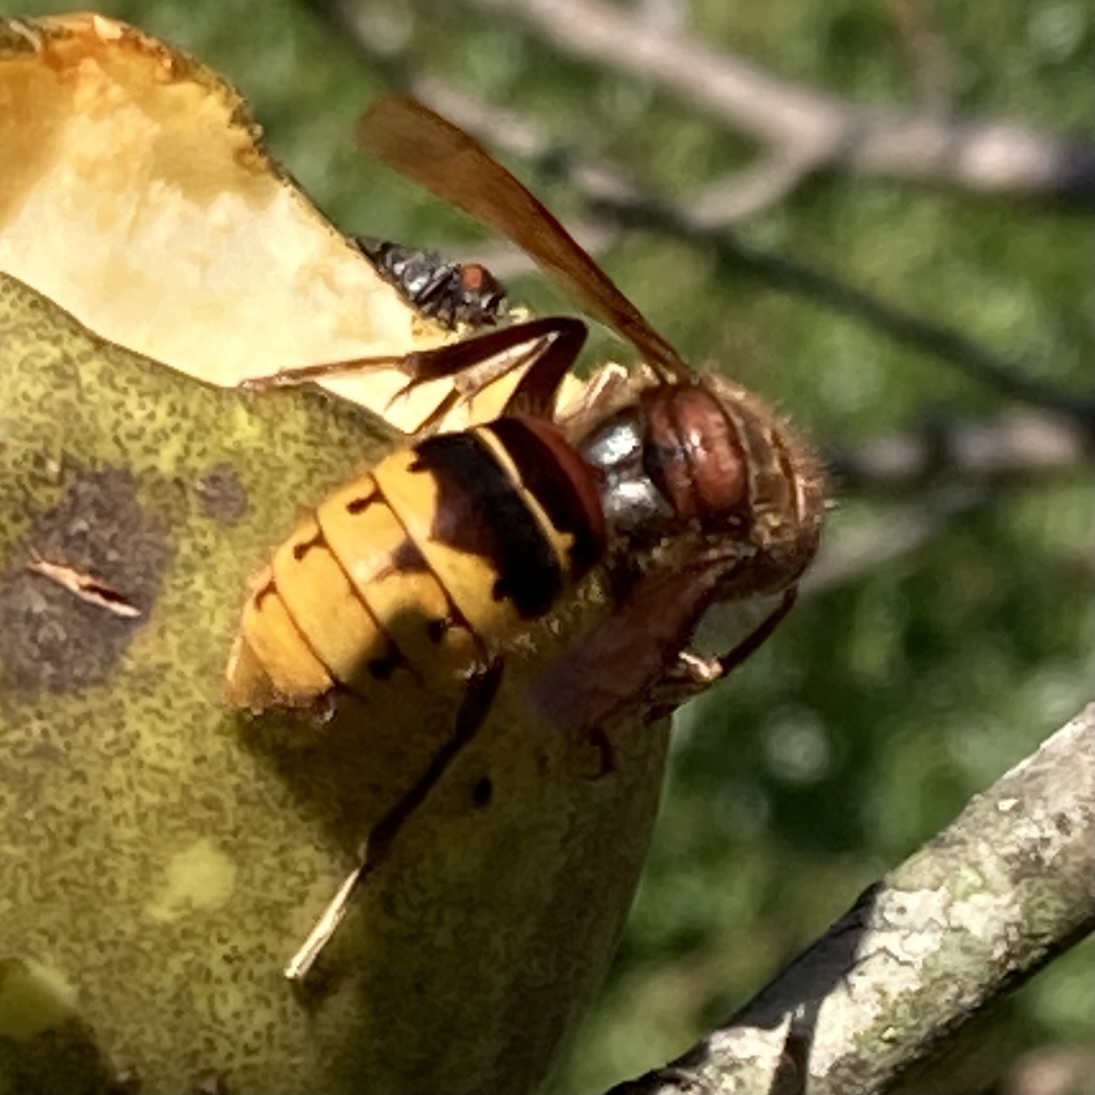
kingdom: Animalia
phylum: Arthropoda
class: Insecta
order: Hymenoptera
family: Vespidae
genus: Vespa
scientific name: Vespa crabro
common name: Hornet
